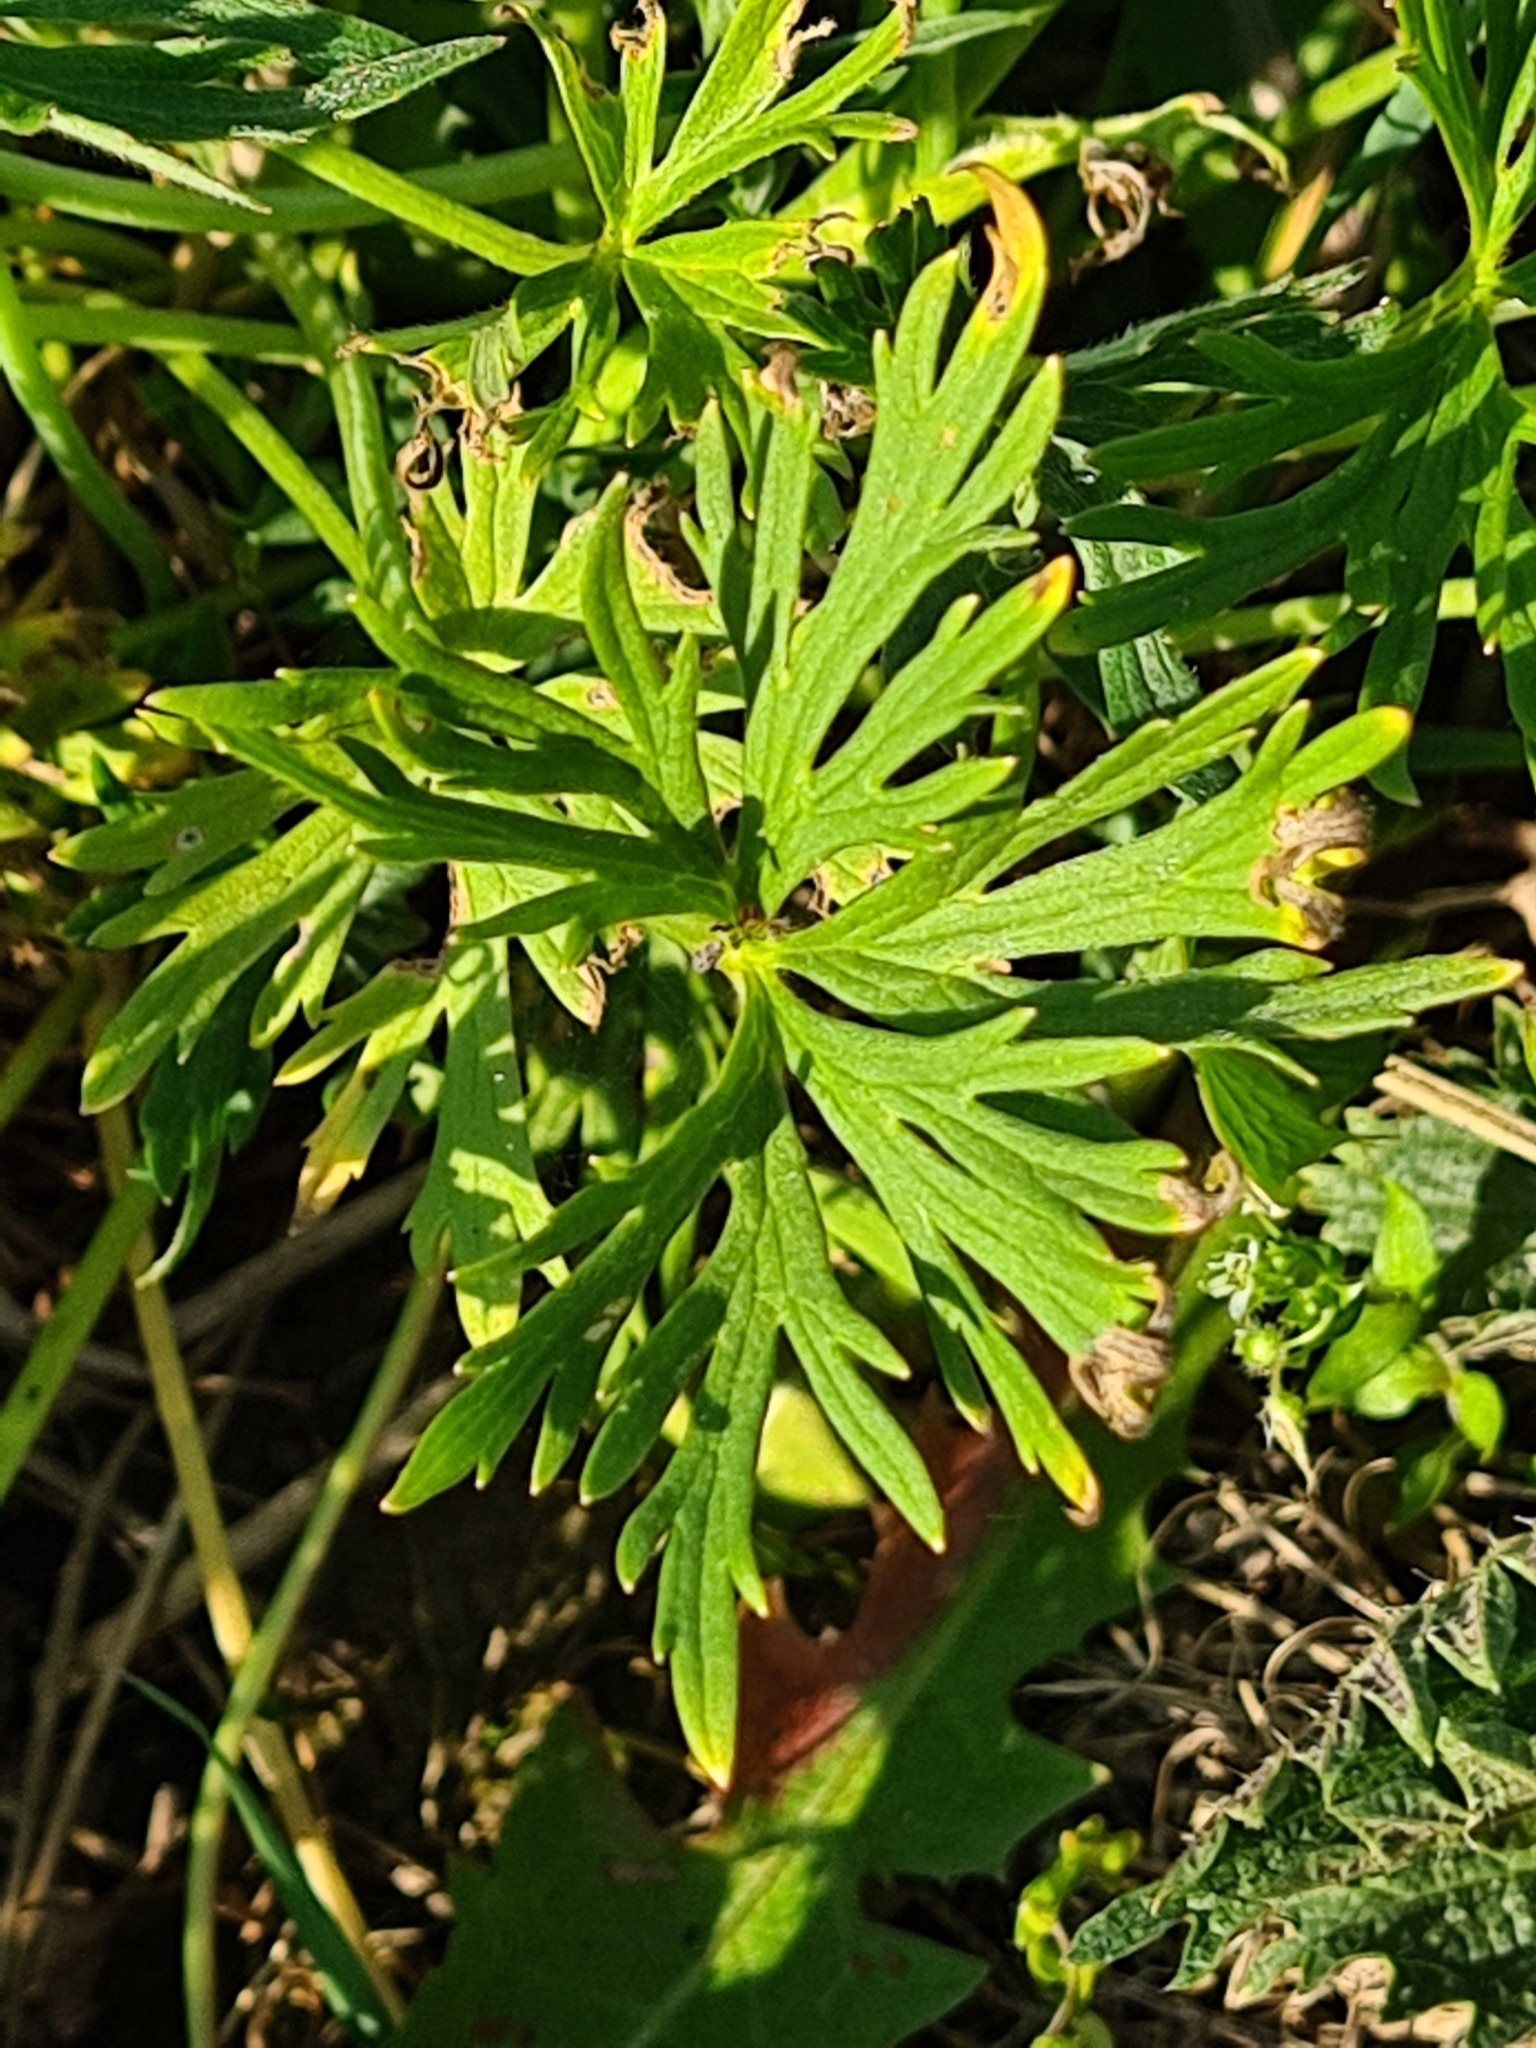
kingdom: Plantae
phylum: Tracheophyta
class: Magnoliopsida
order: Ranunculales
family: Ranunculaceae
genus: Ranunculus
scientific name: Ranunculus acris
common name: Meadow buttercup
